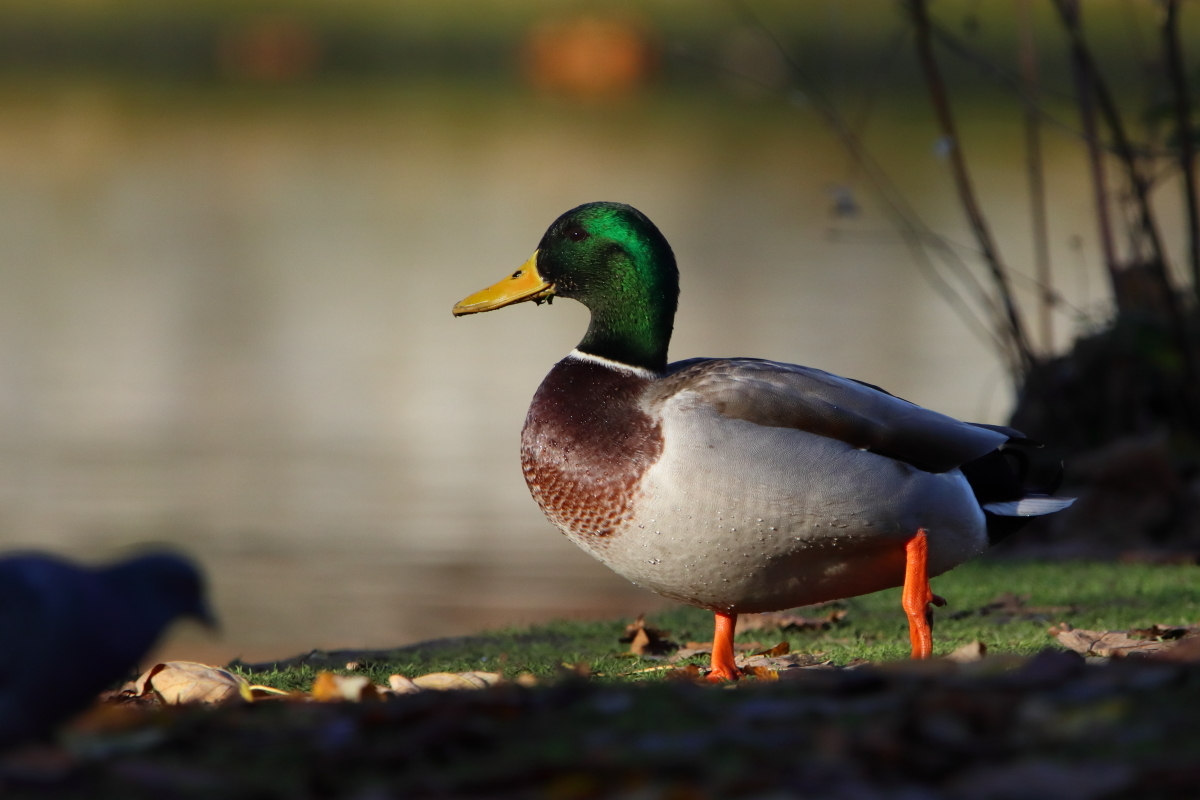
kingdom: Animalia
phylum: Chordata
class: Aves
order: Anseriformes
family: Anatidae
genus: Anas
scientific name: Anas platyrhynchos
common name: Mallard
